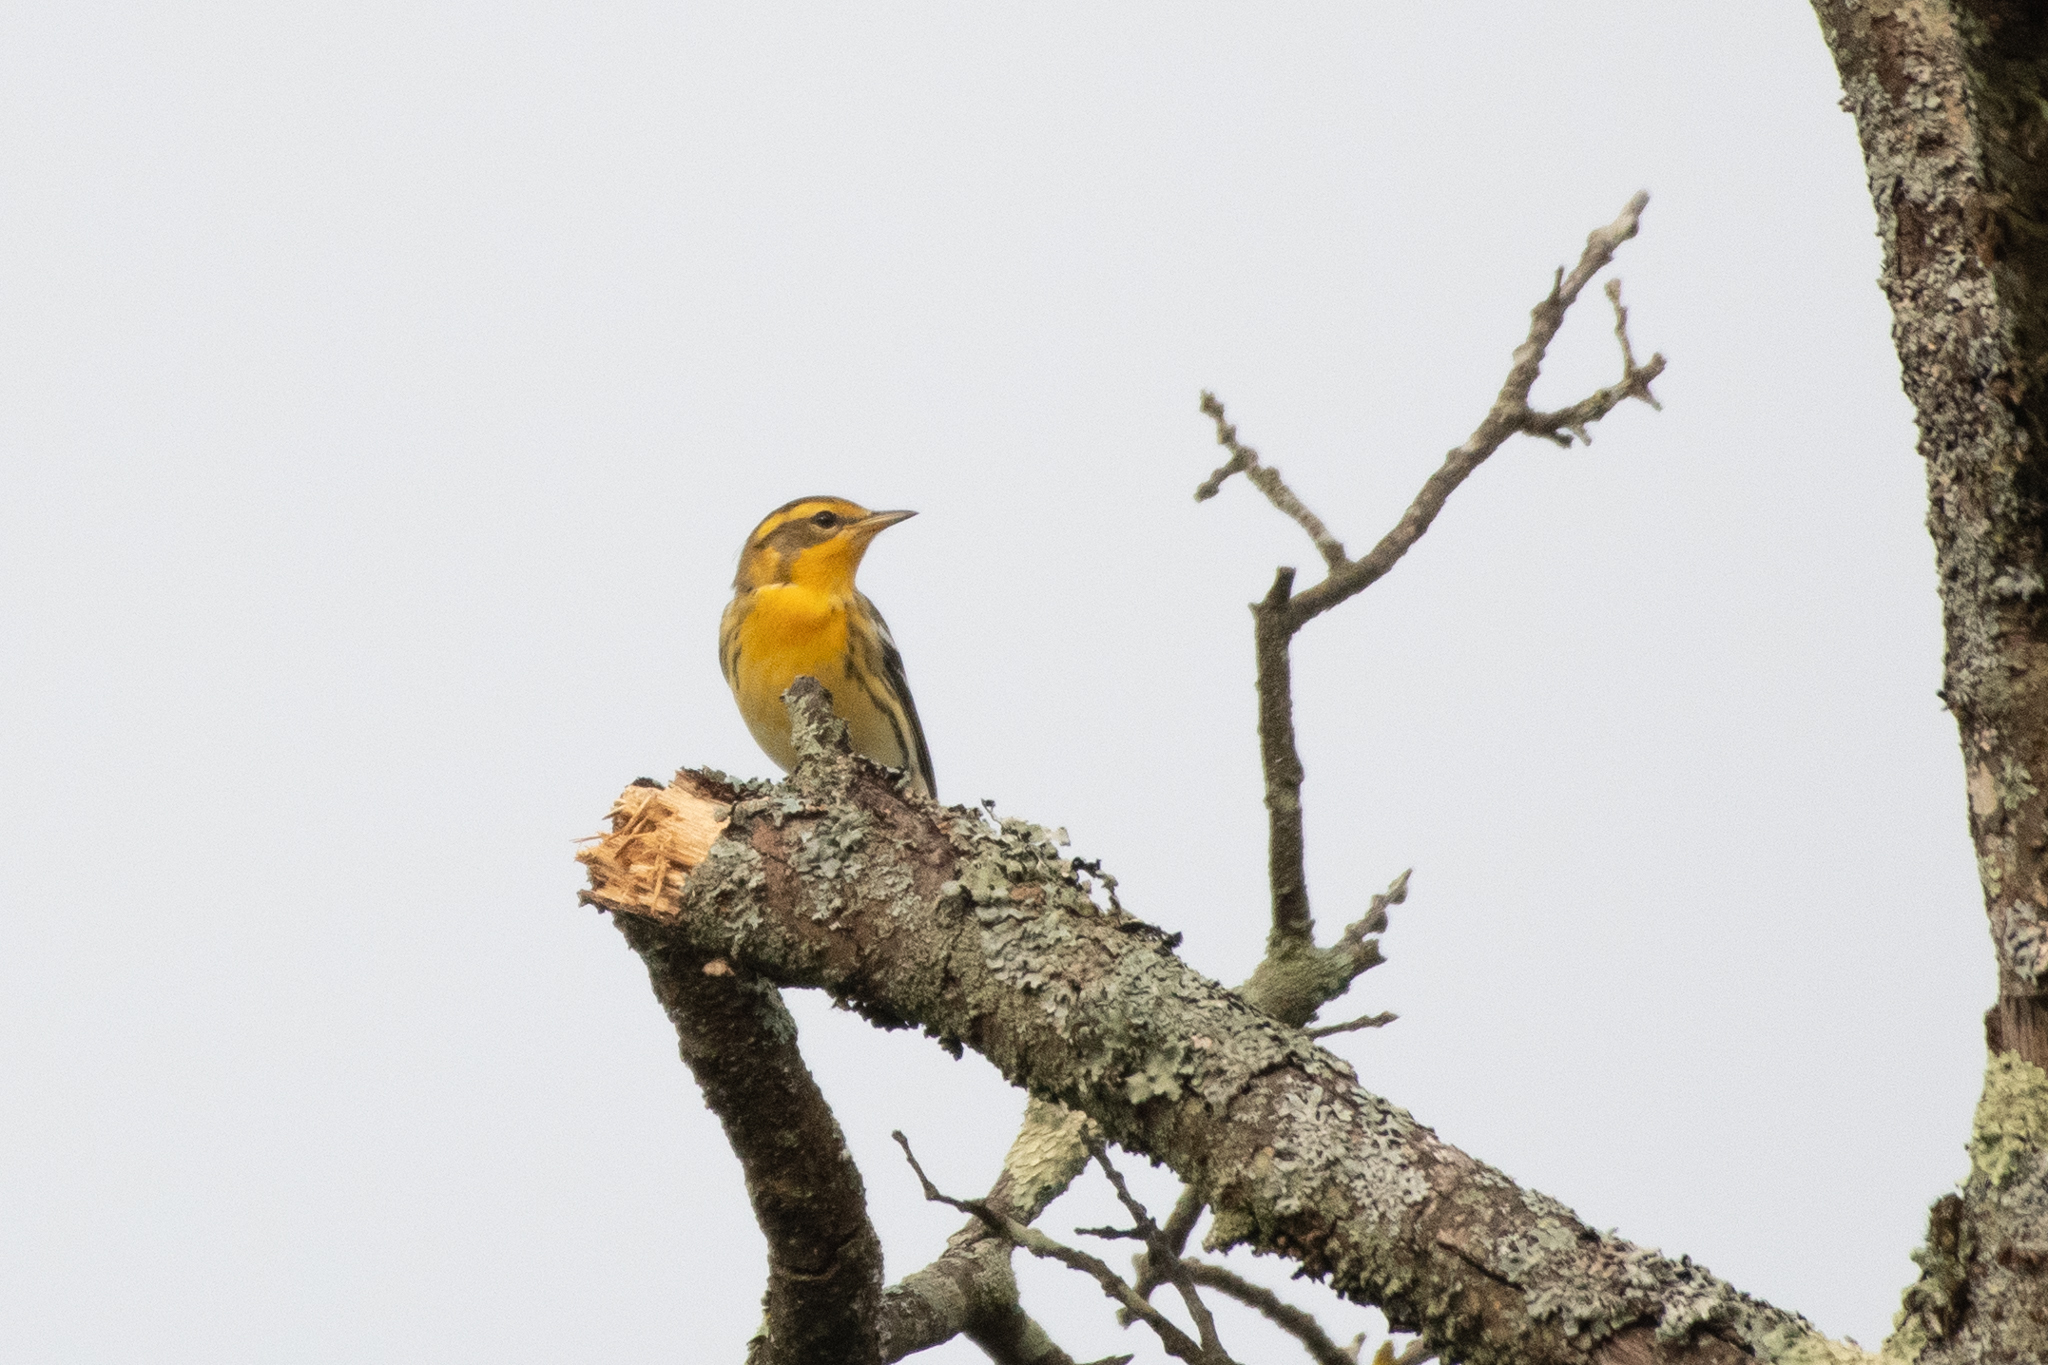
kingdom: Animalia
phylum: Chordata
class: Aves
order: Passeriformes
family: Parulidae
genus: Setophaga
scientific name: Setophaga fusca
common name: Blackburnian warbler
